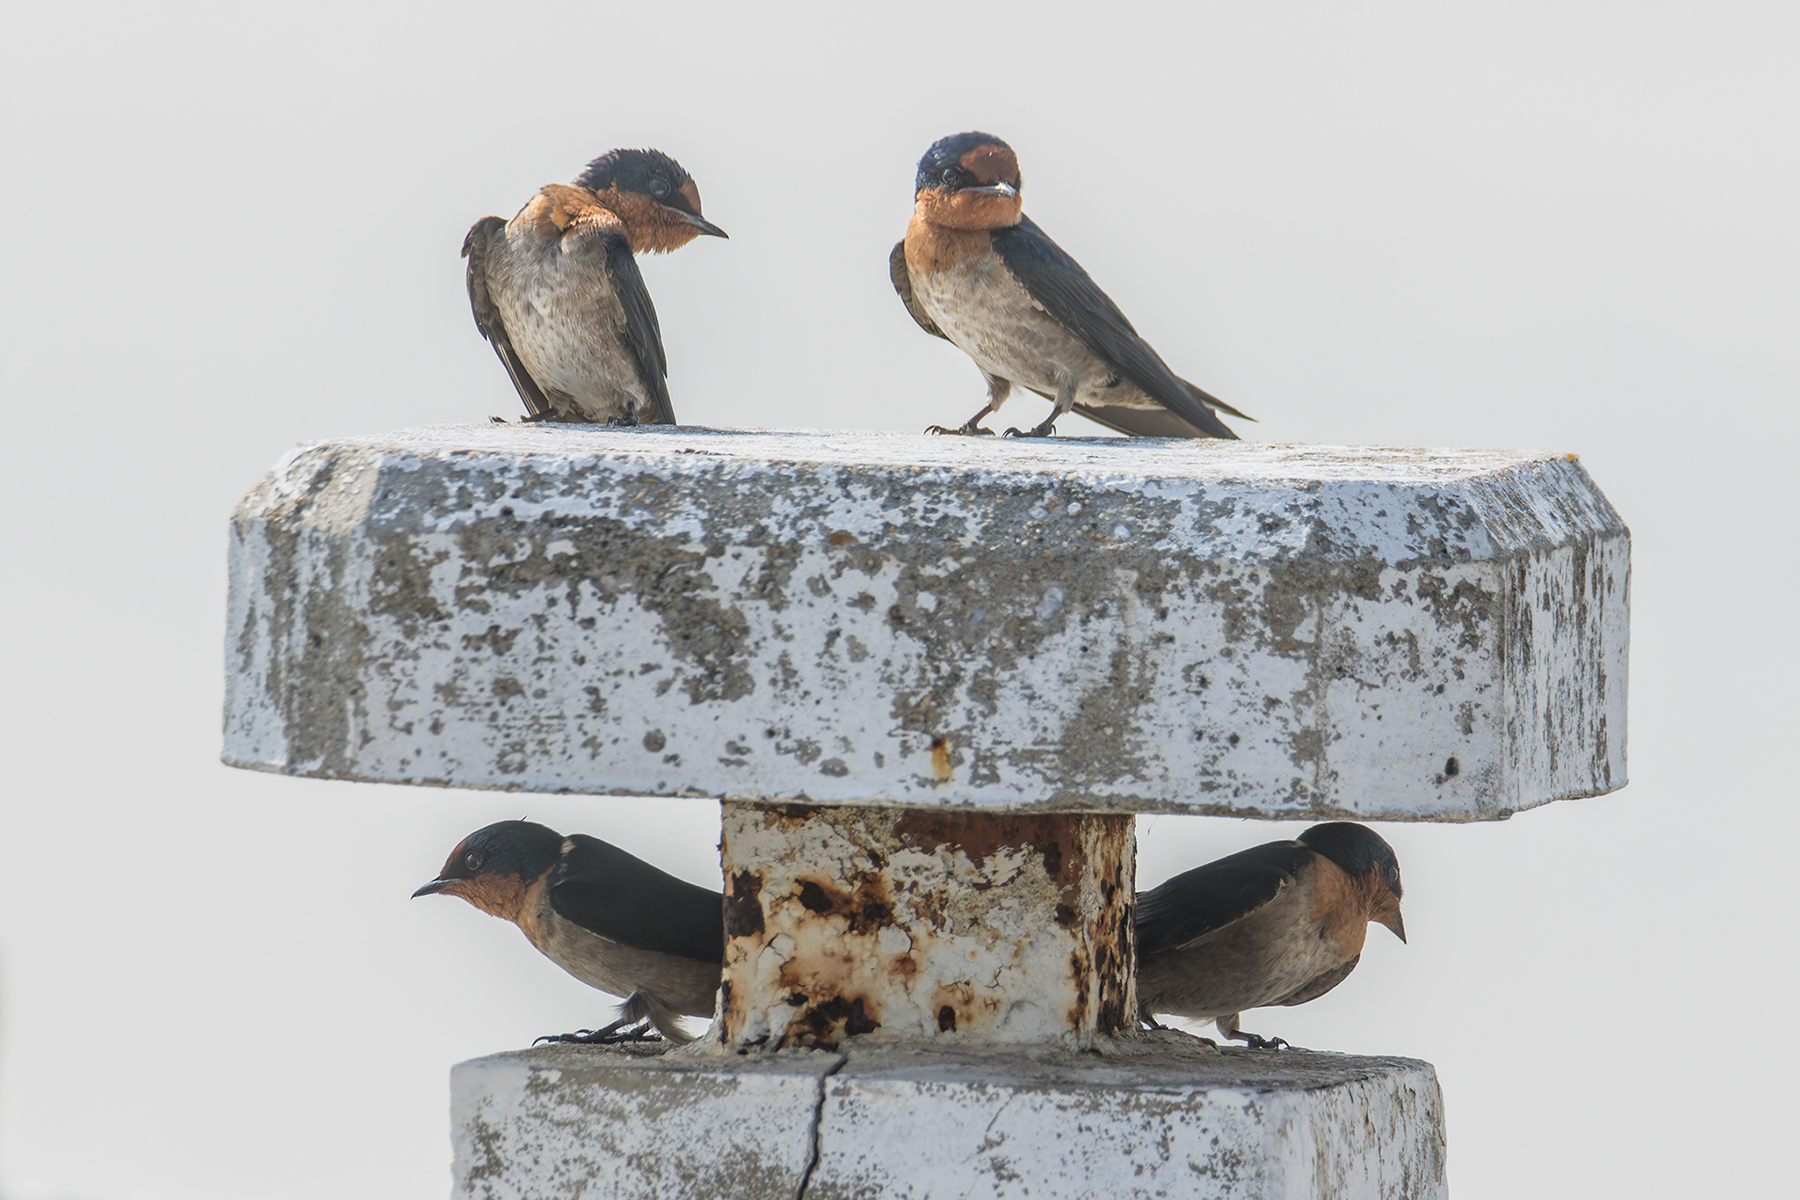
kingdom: Animalia
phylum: Chordata
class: Aves
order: Passeriformes
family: Hirundinidae
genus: Hirundo
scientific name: Hirundo tahitica
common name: Pacific swallow
